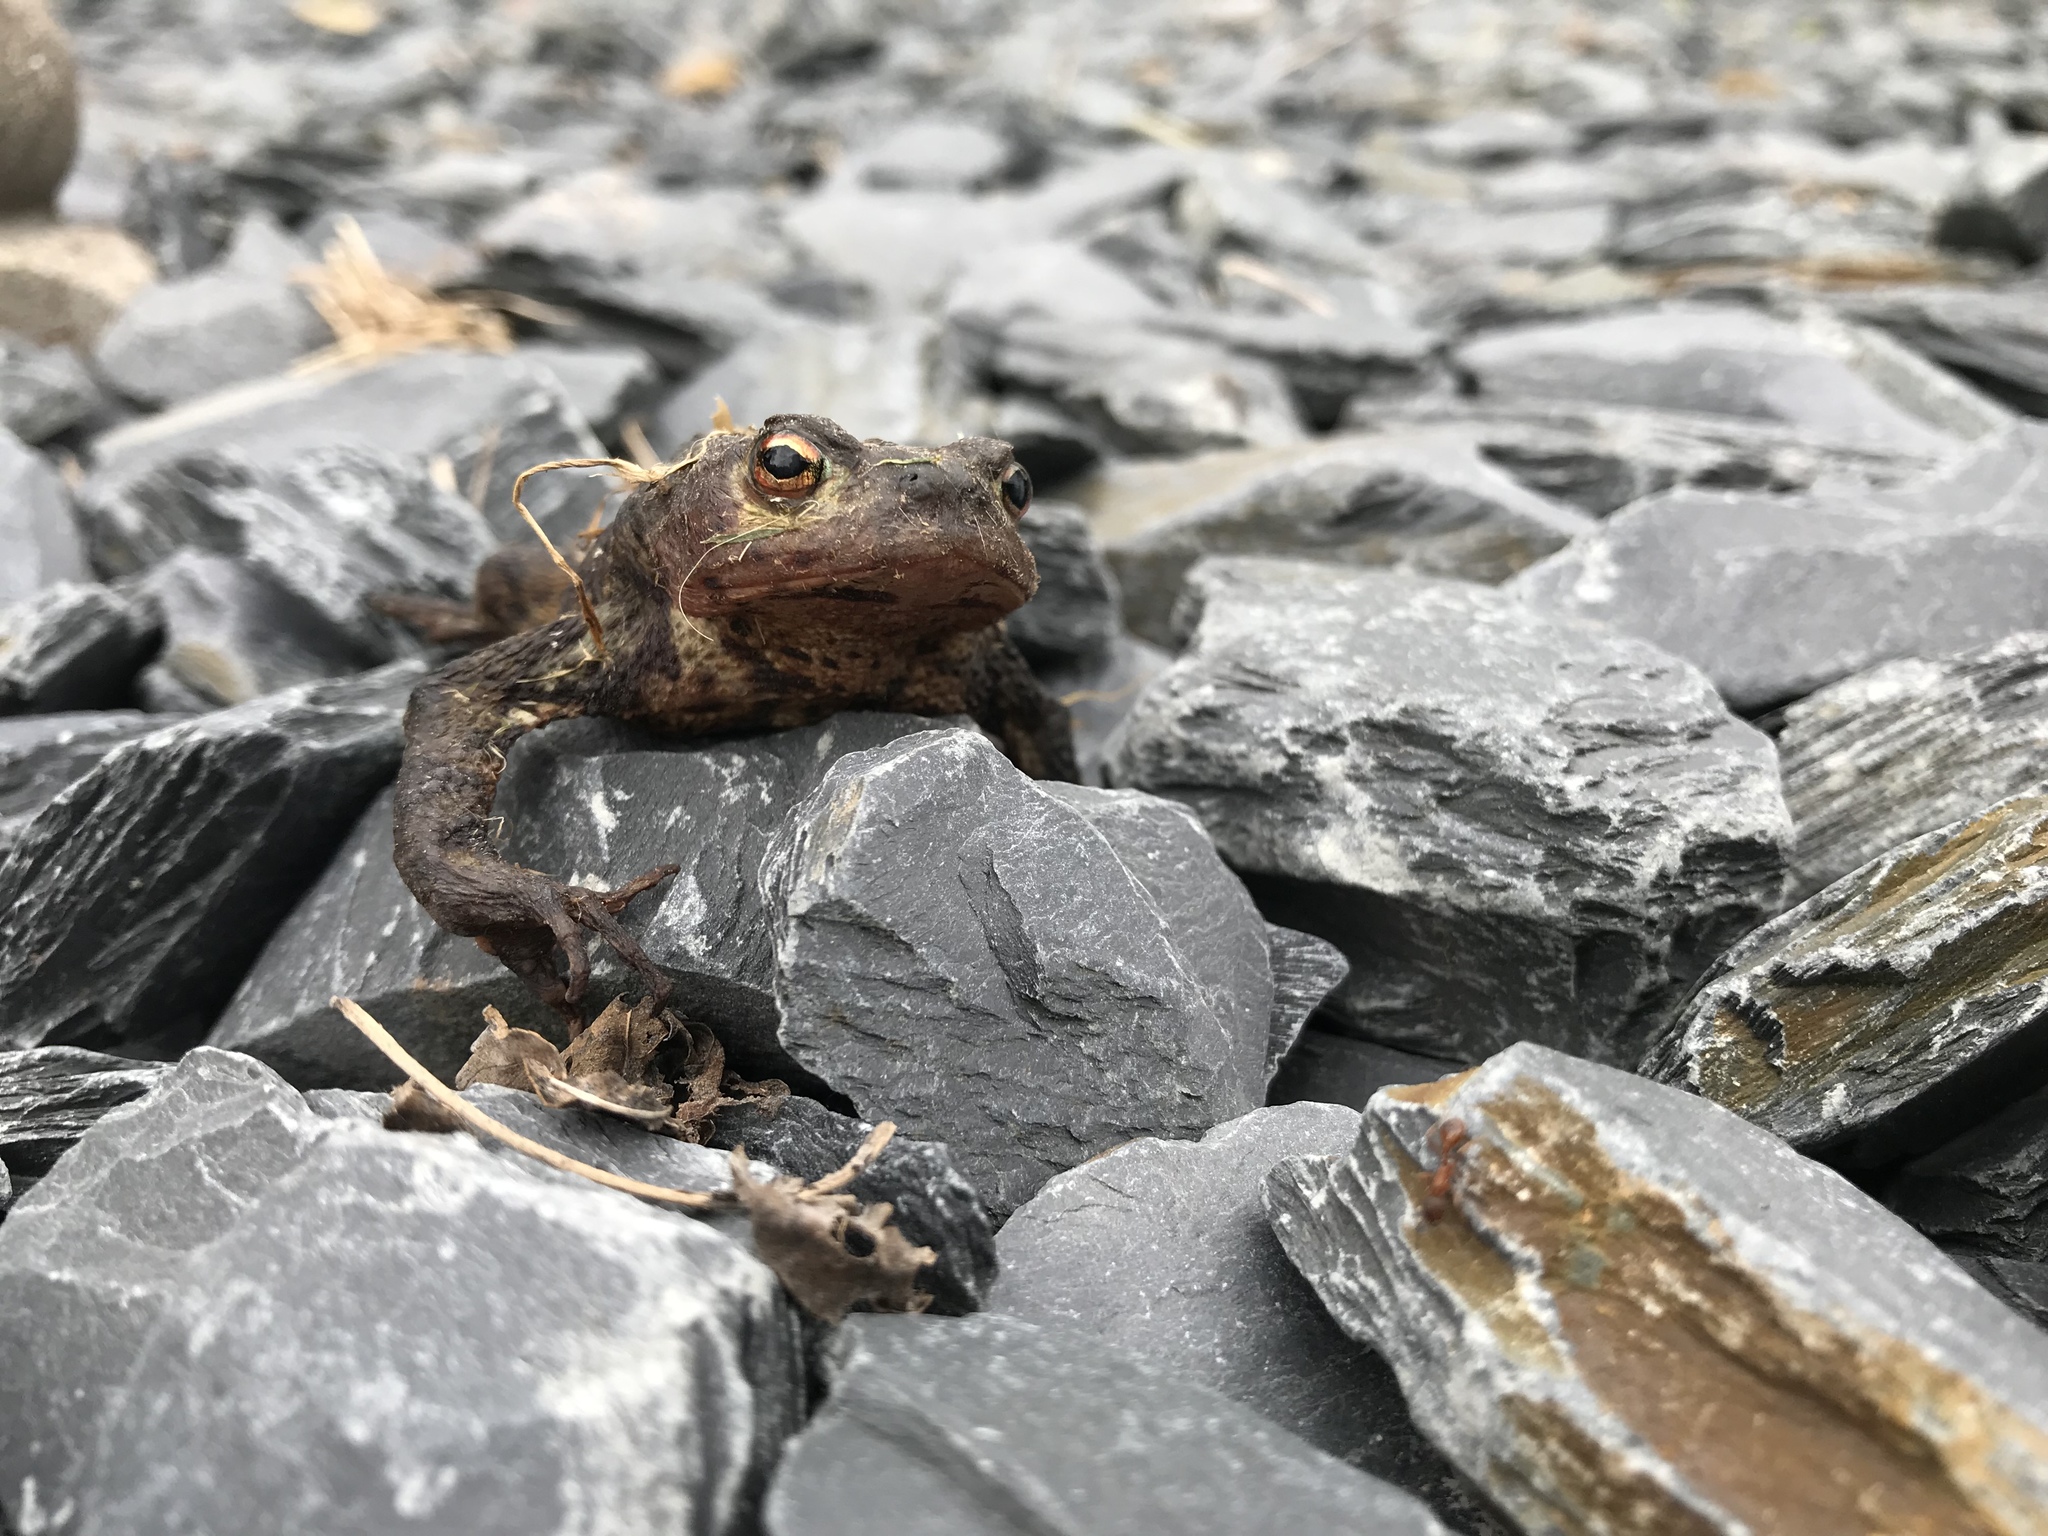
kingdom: Animalia
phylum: Chordata
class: Amphibia
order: Anura
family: Bufonidae
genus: Bufo
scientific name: Bufo bufo
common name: Common toad
